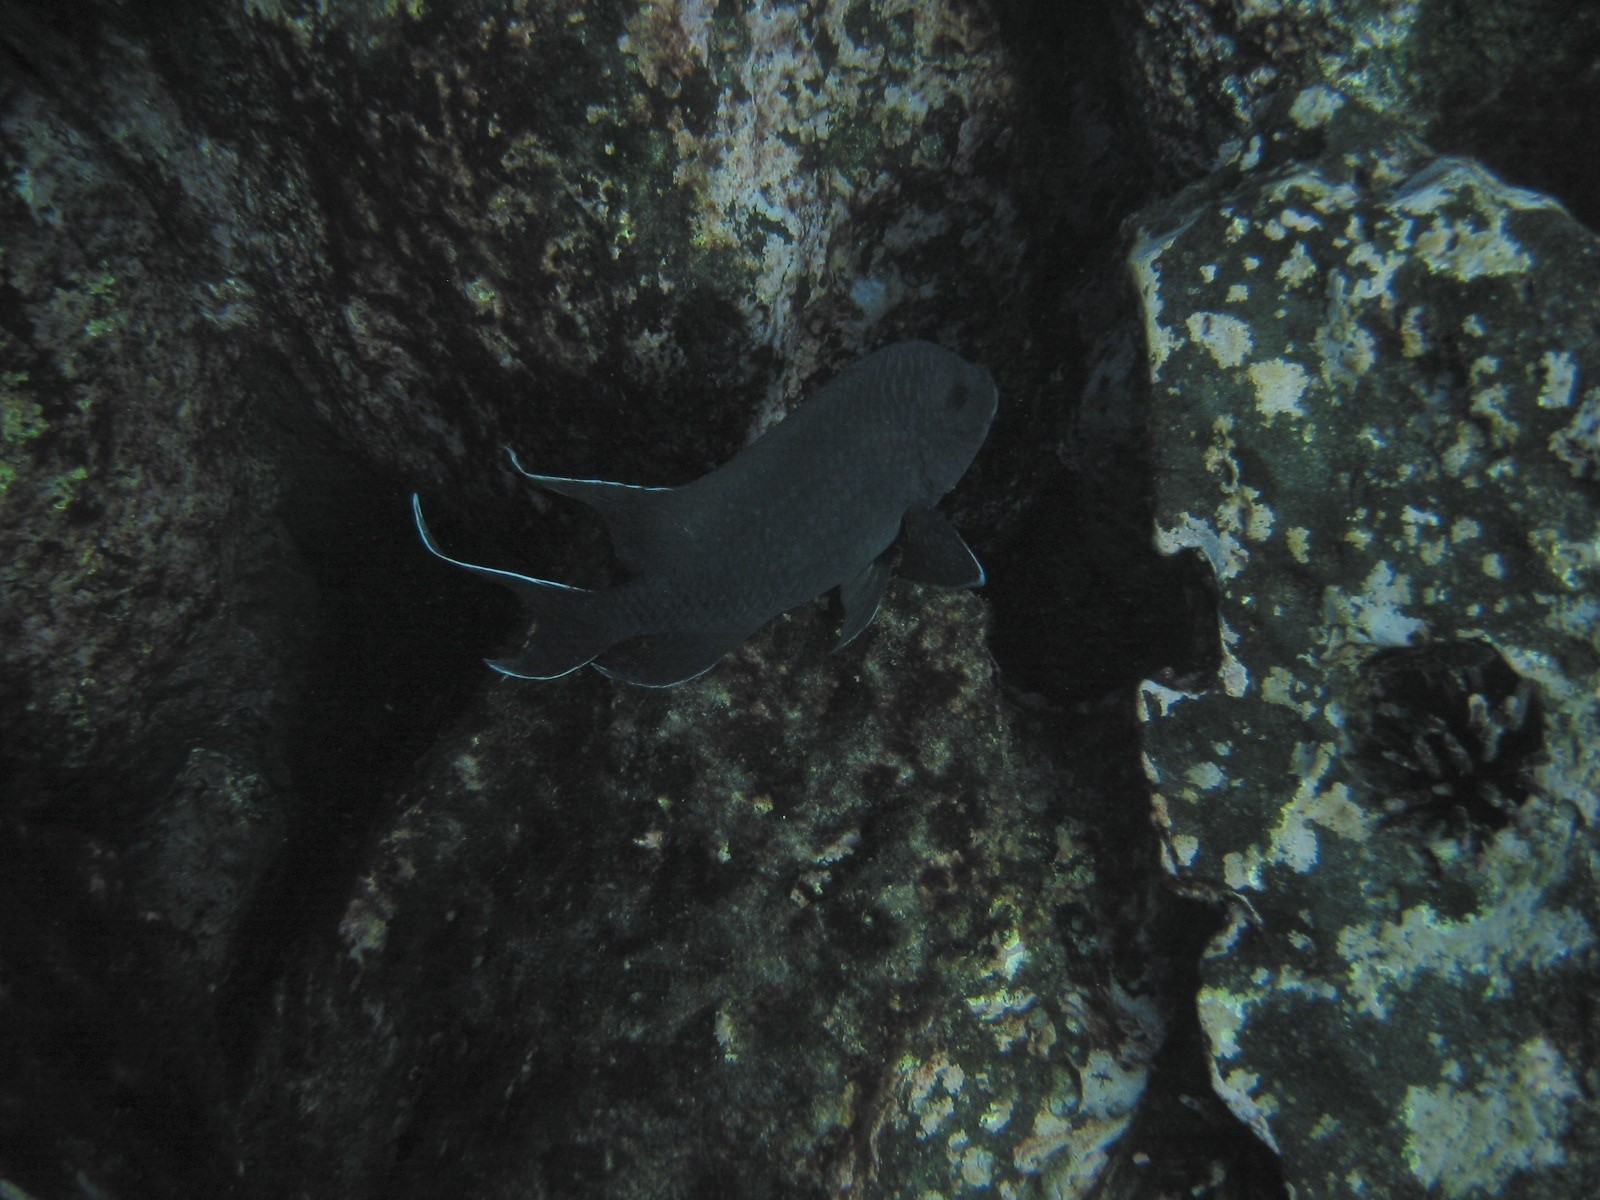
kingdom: Animalia
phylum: Chordata
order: Perciformes
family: Pomacentridae
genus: Microspathodon
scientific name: Microspathodon dorsalis
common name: Giant damselfish
